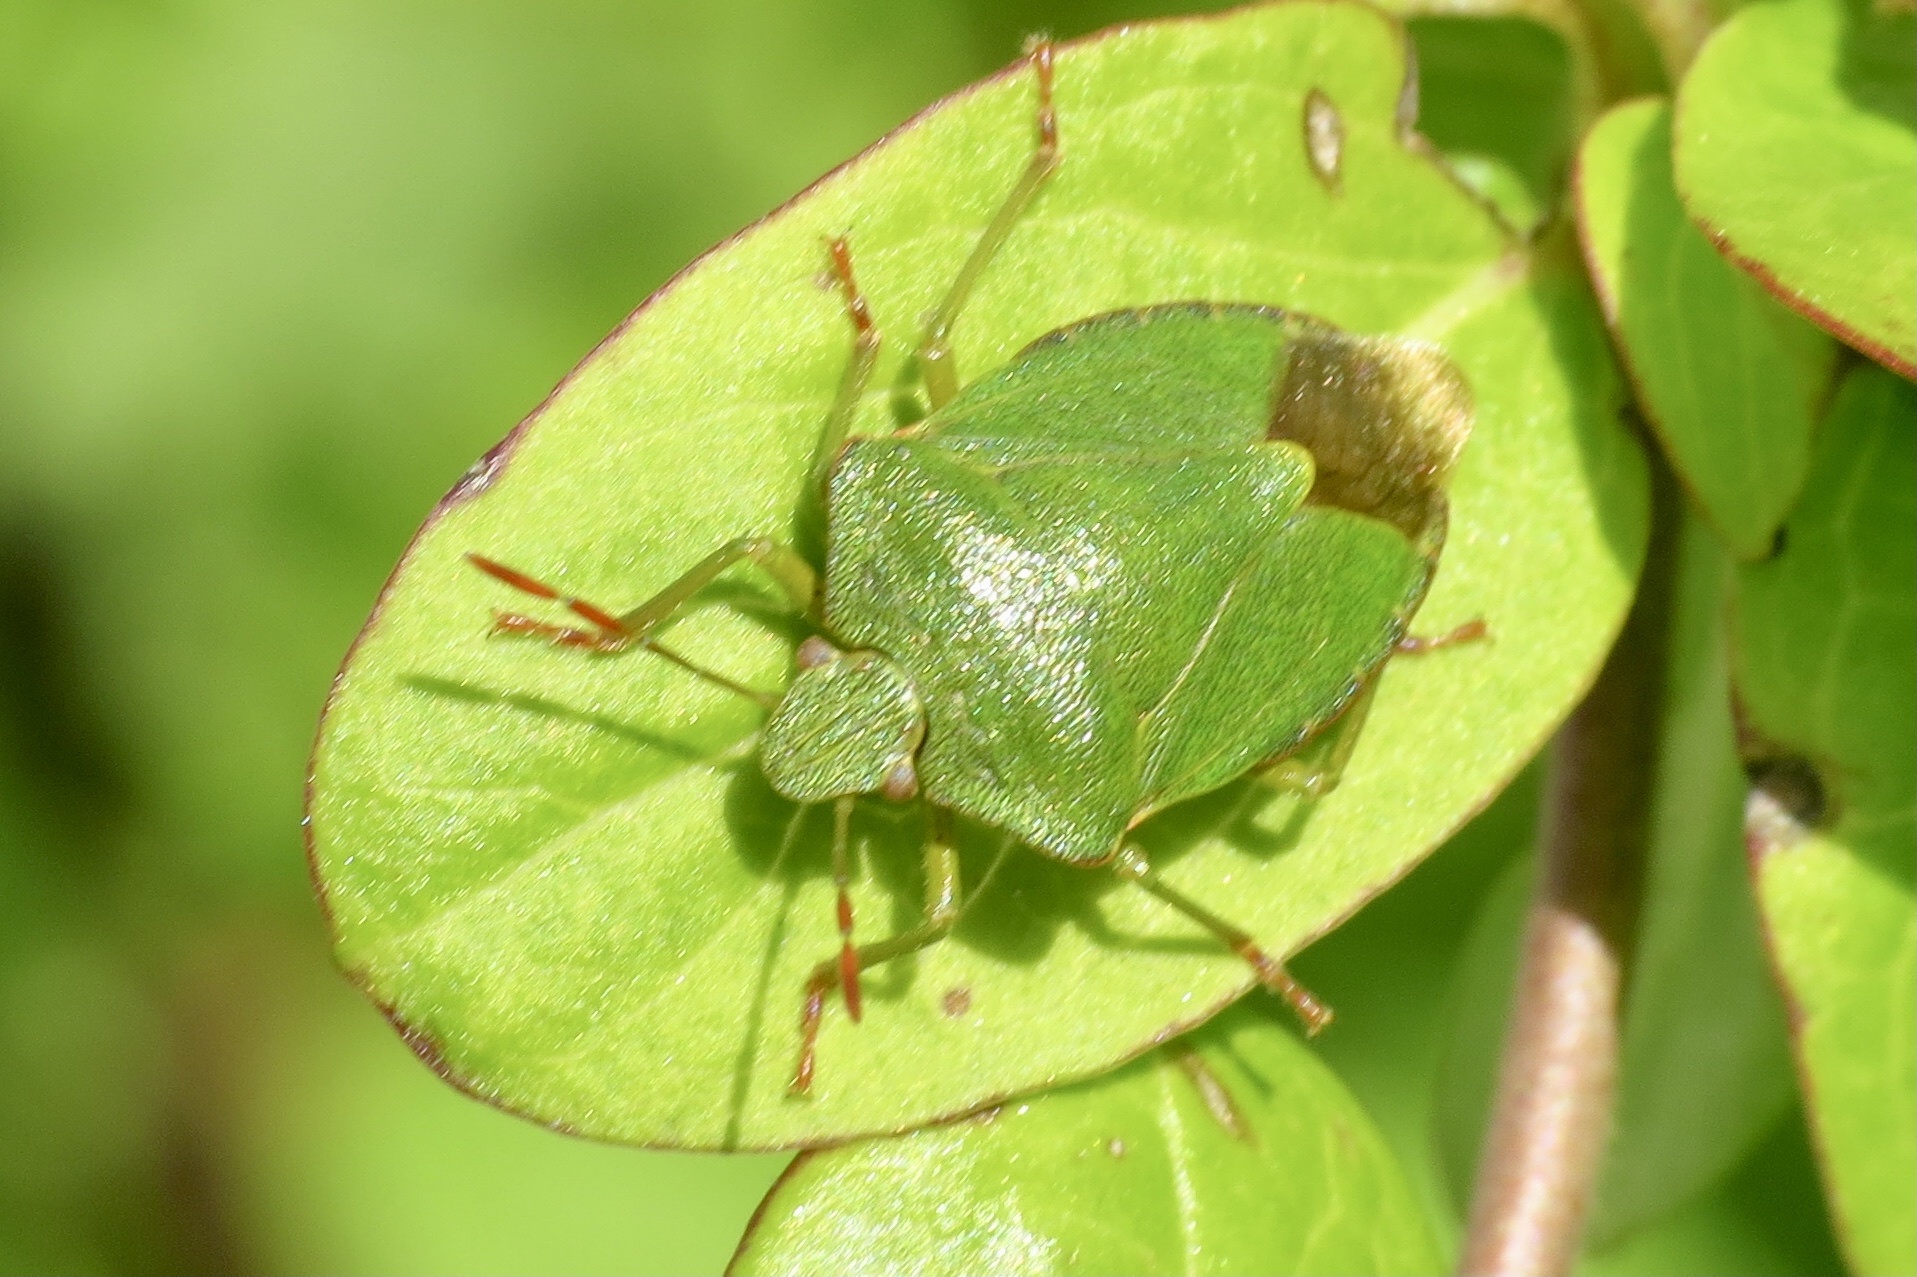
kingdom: Animalia
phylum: Arthropoda
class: Insecta
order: Hemiptera
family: Pentatomidae
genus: Palomena
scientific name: Palomena prasina
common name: Green shieldbug
